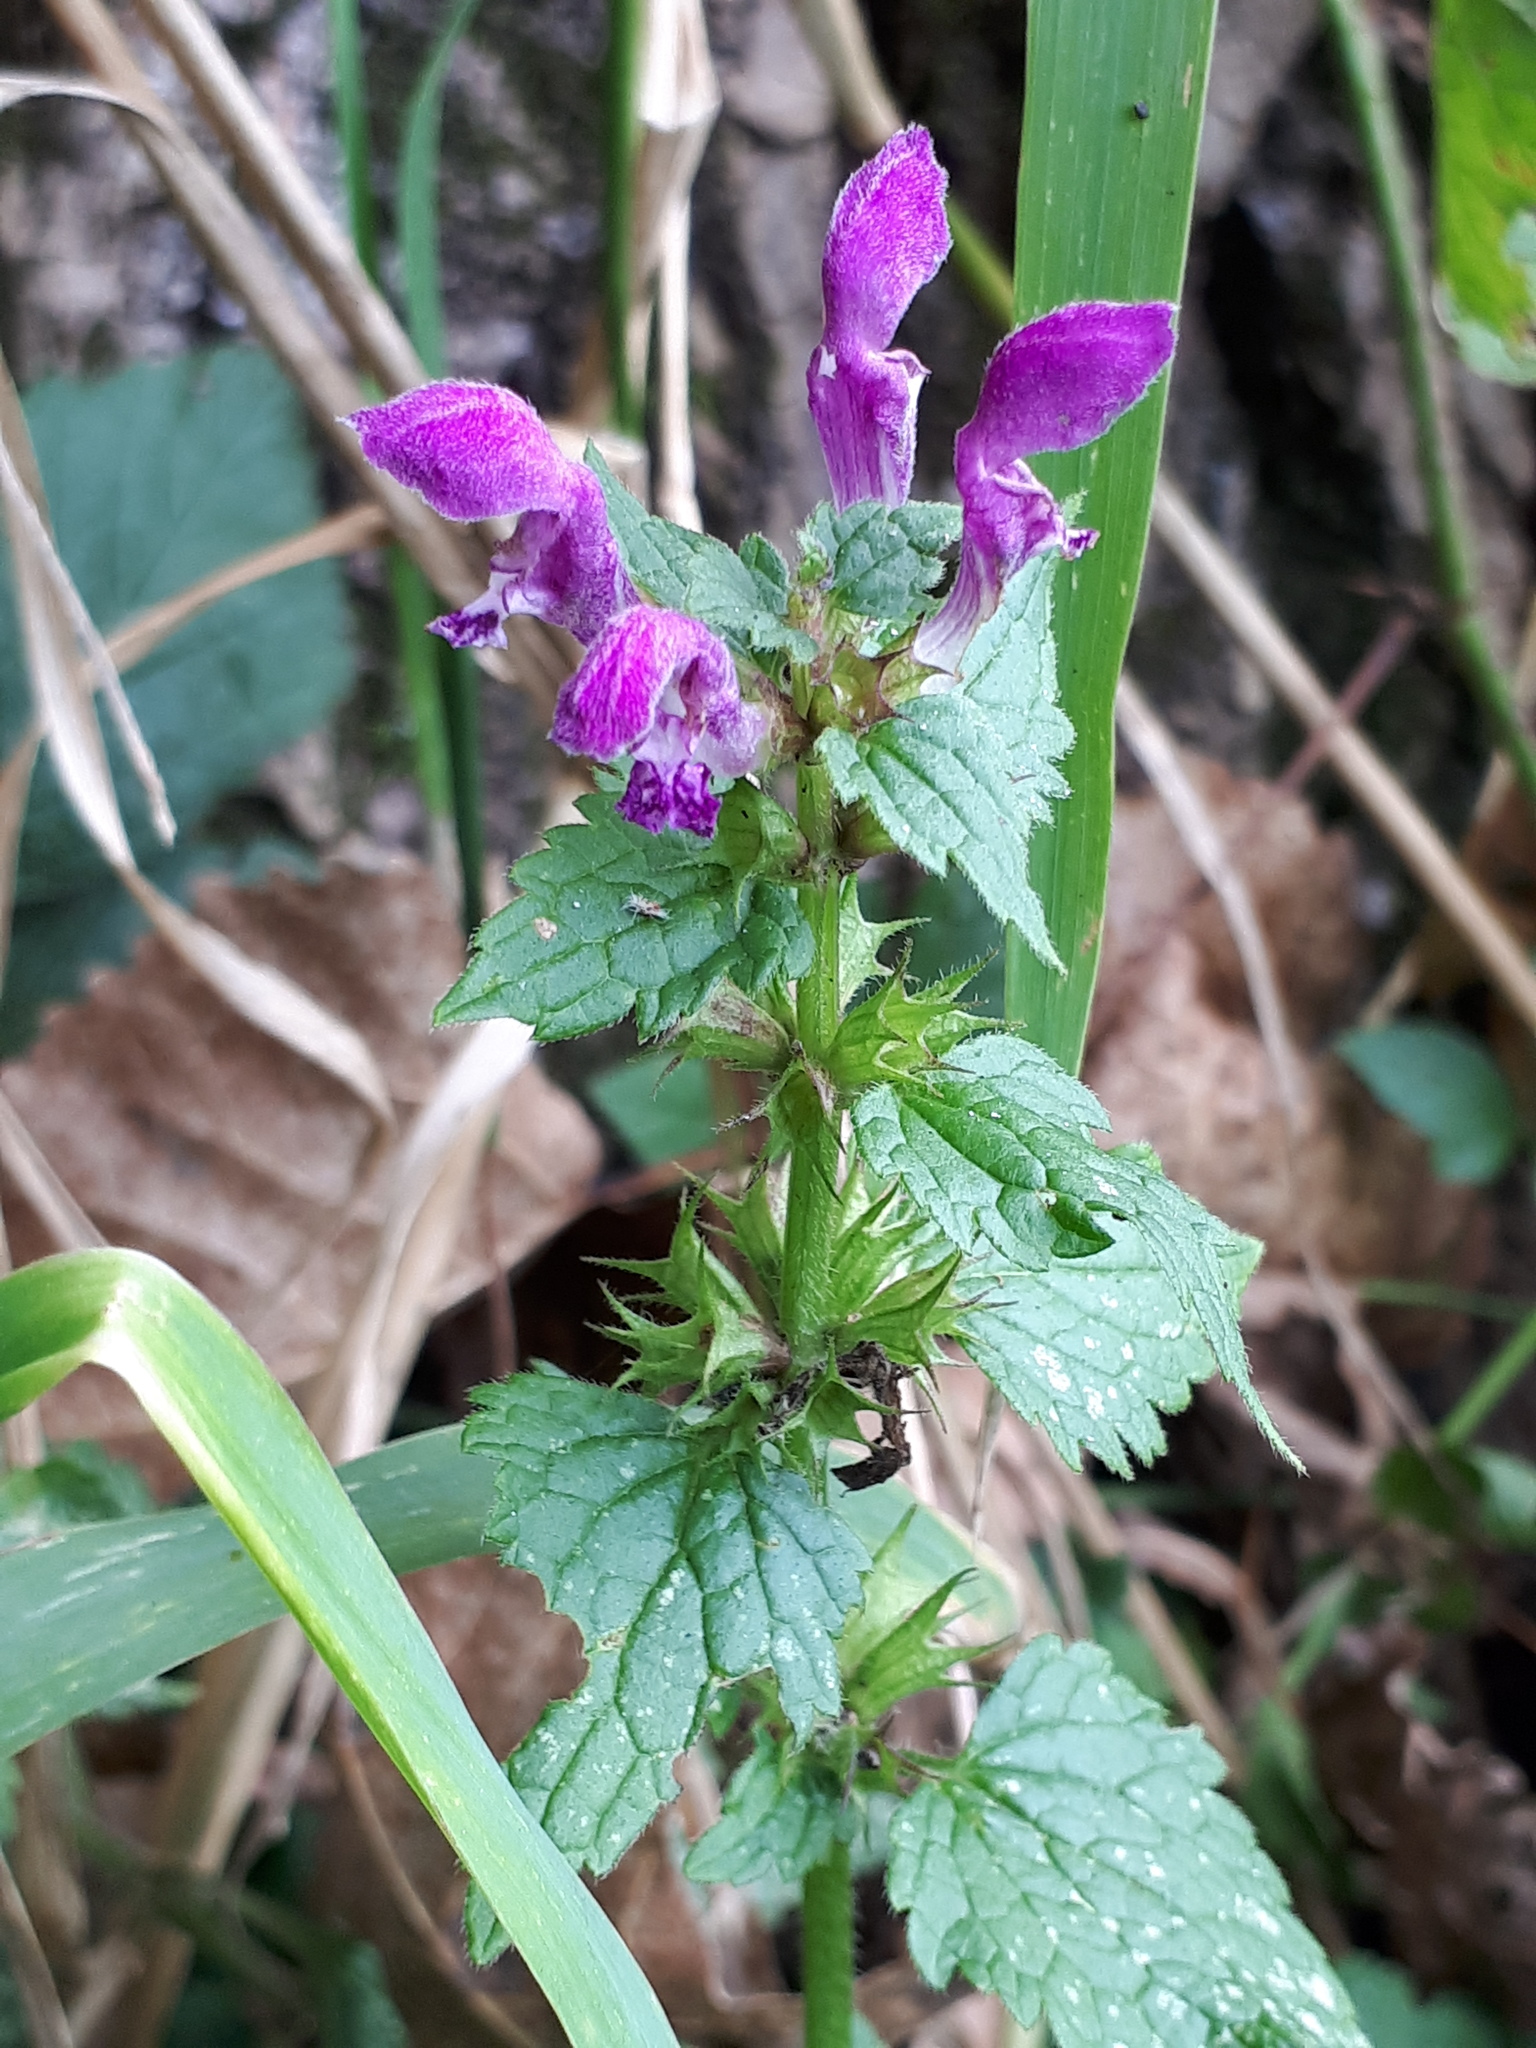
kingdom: Plantae
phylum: Tracheophyta
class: Magnoliopsida
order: Lamiales
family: Lamiaceae
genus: Lamium
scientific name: Lamium maculatum
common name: Spotted dead-nettle
